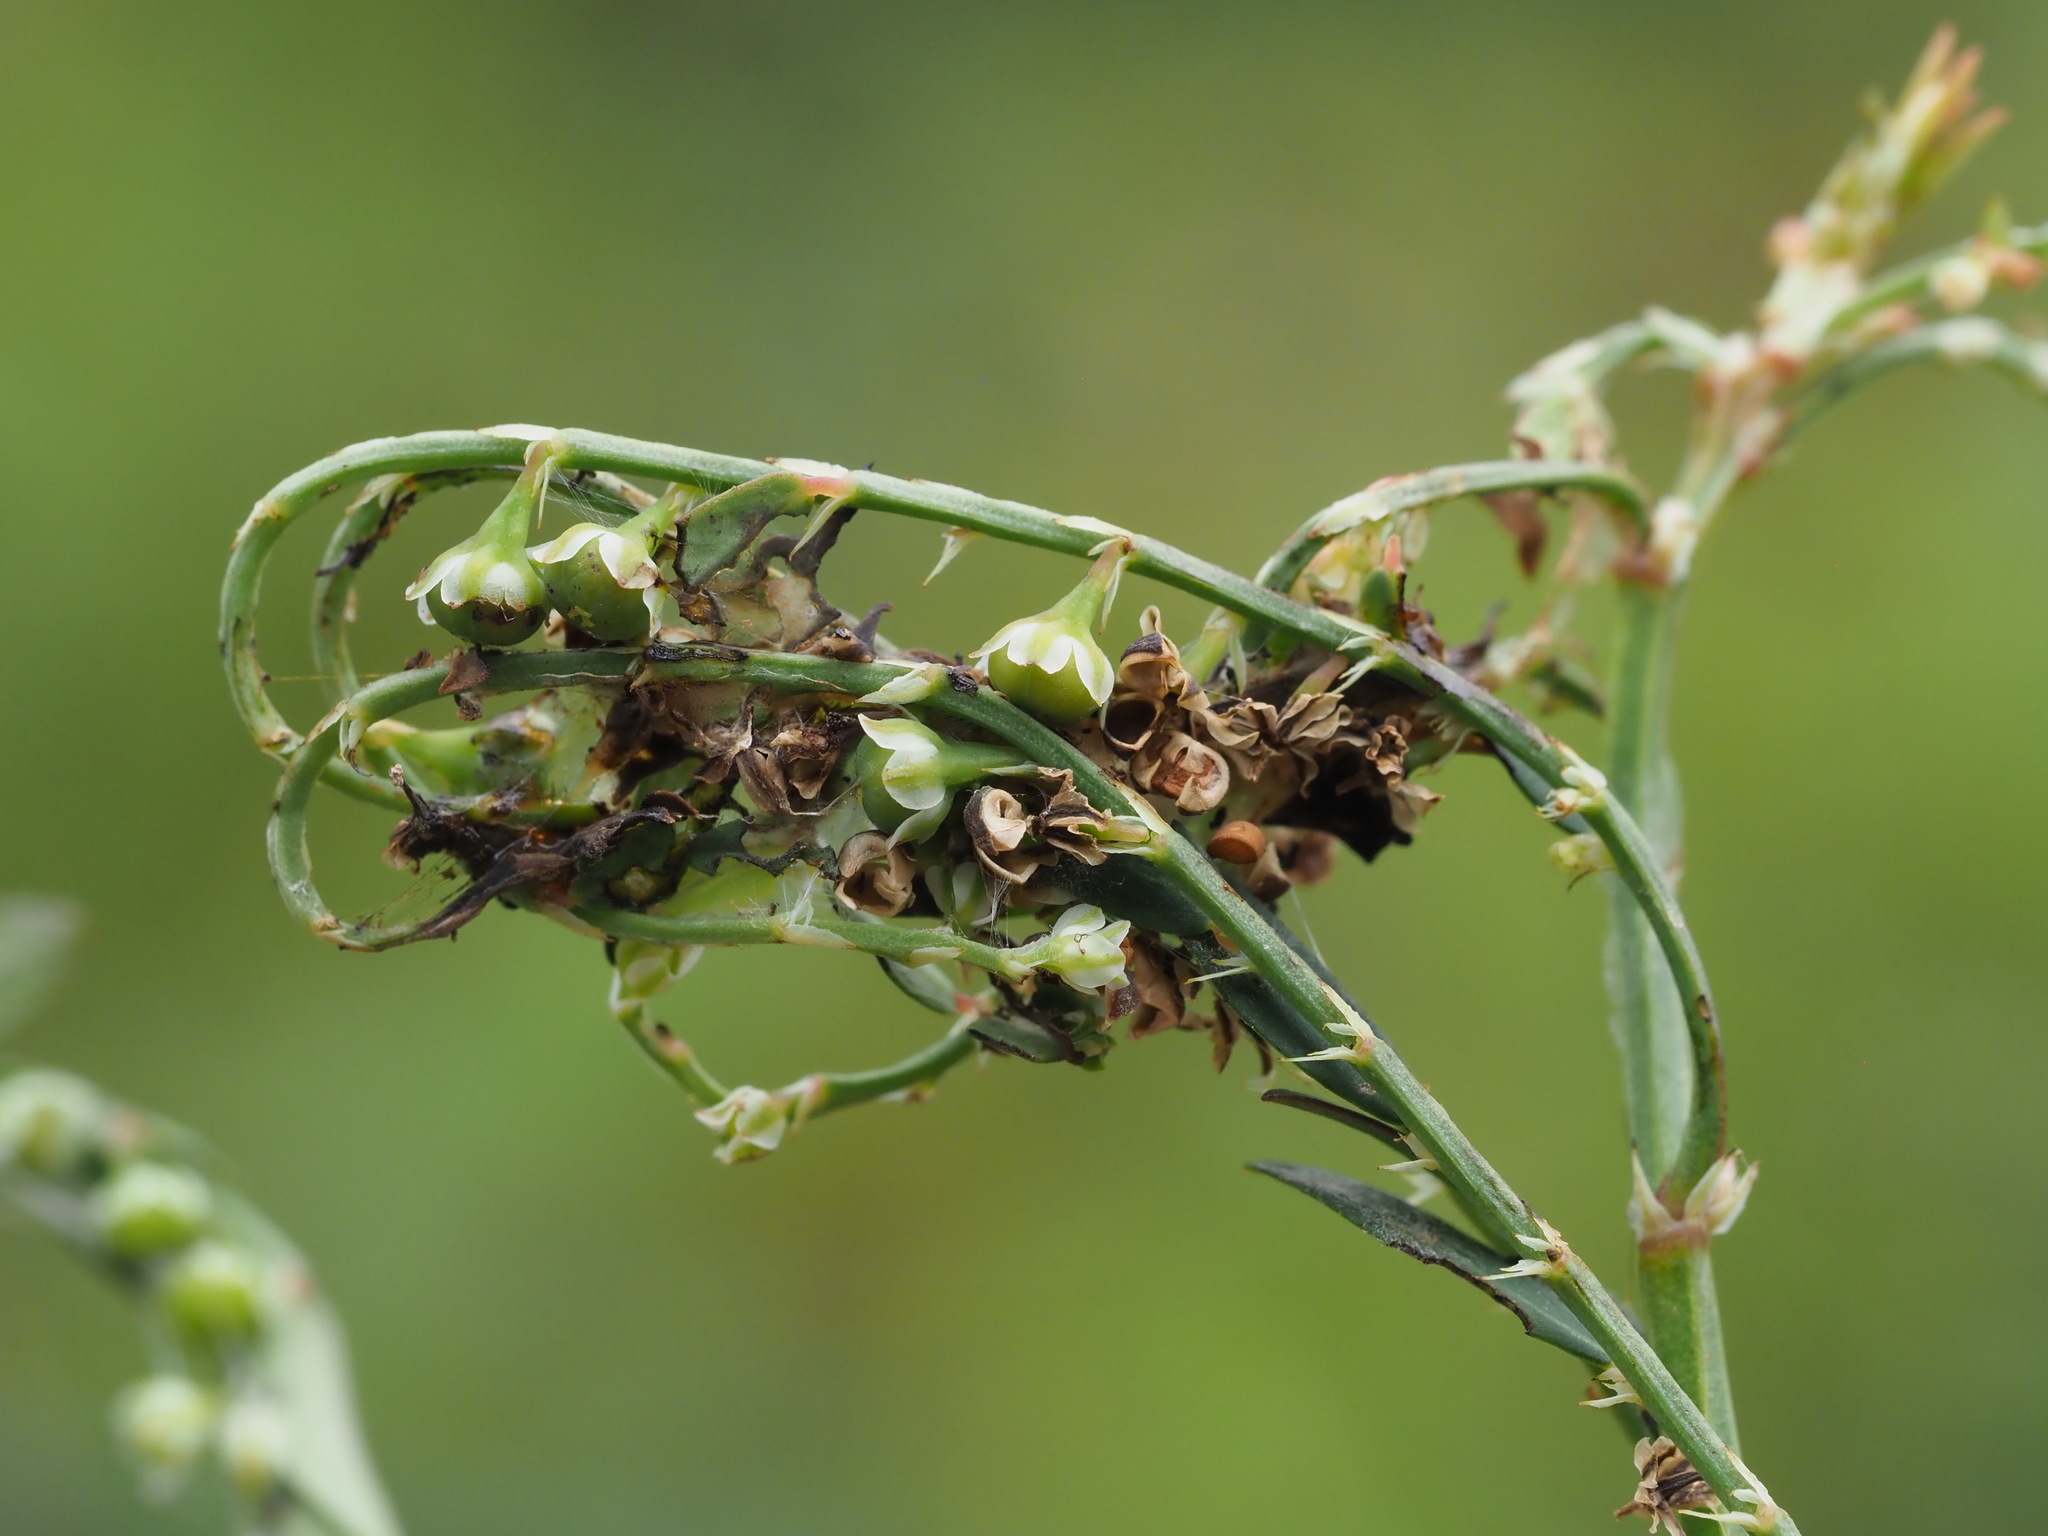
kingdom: Animalia
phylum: Arthropoda
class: Insecta
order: Lepidoptera
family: Tortricidae
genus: Cacocharis
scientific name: Cacocharis cymotoma
